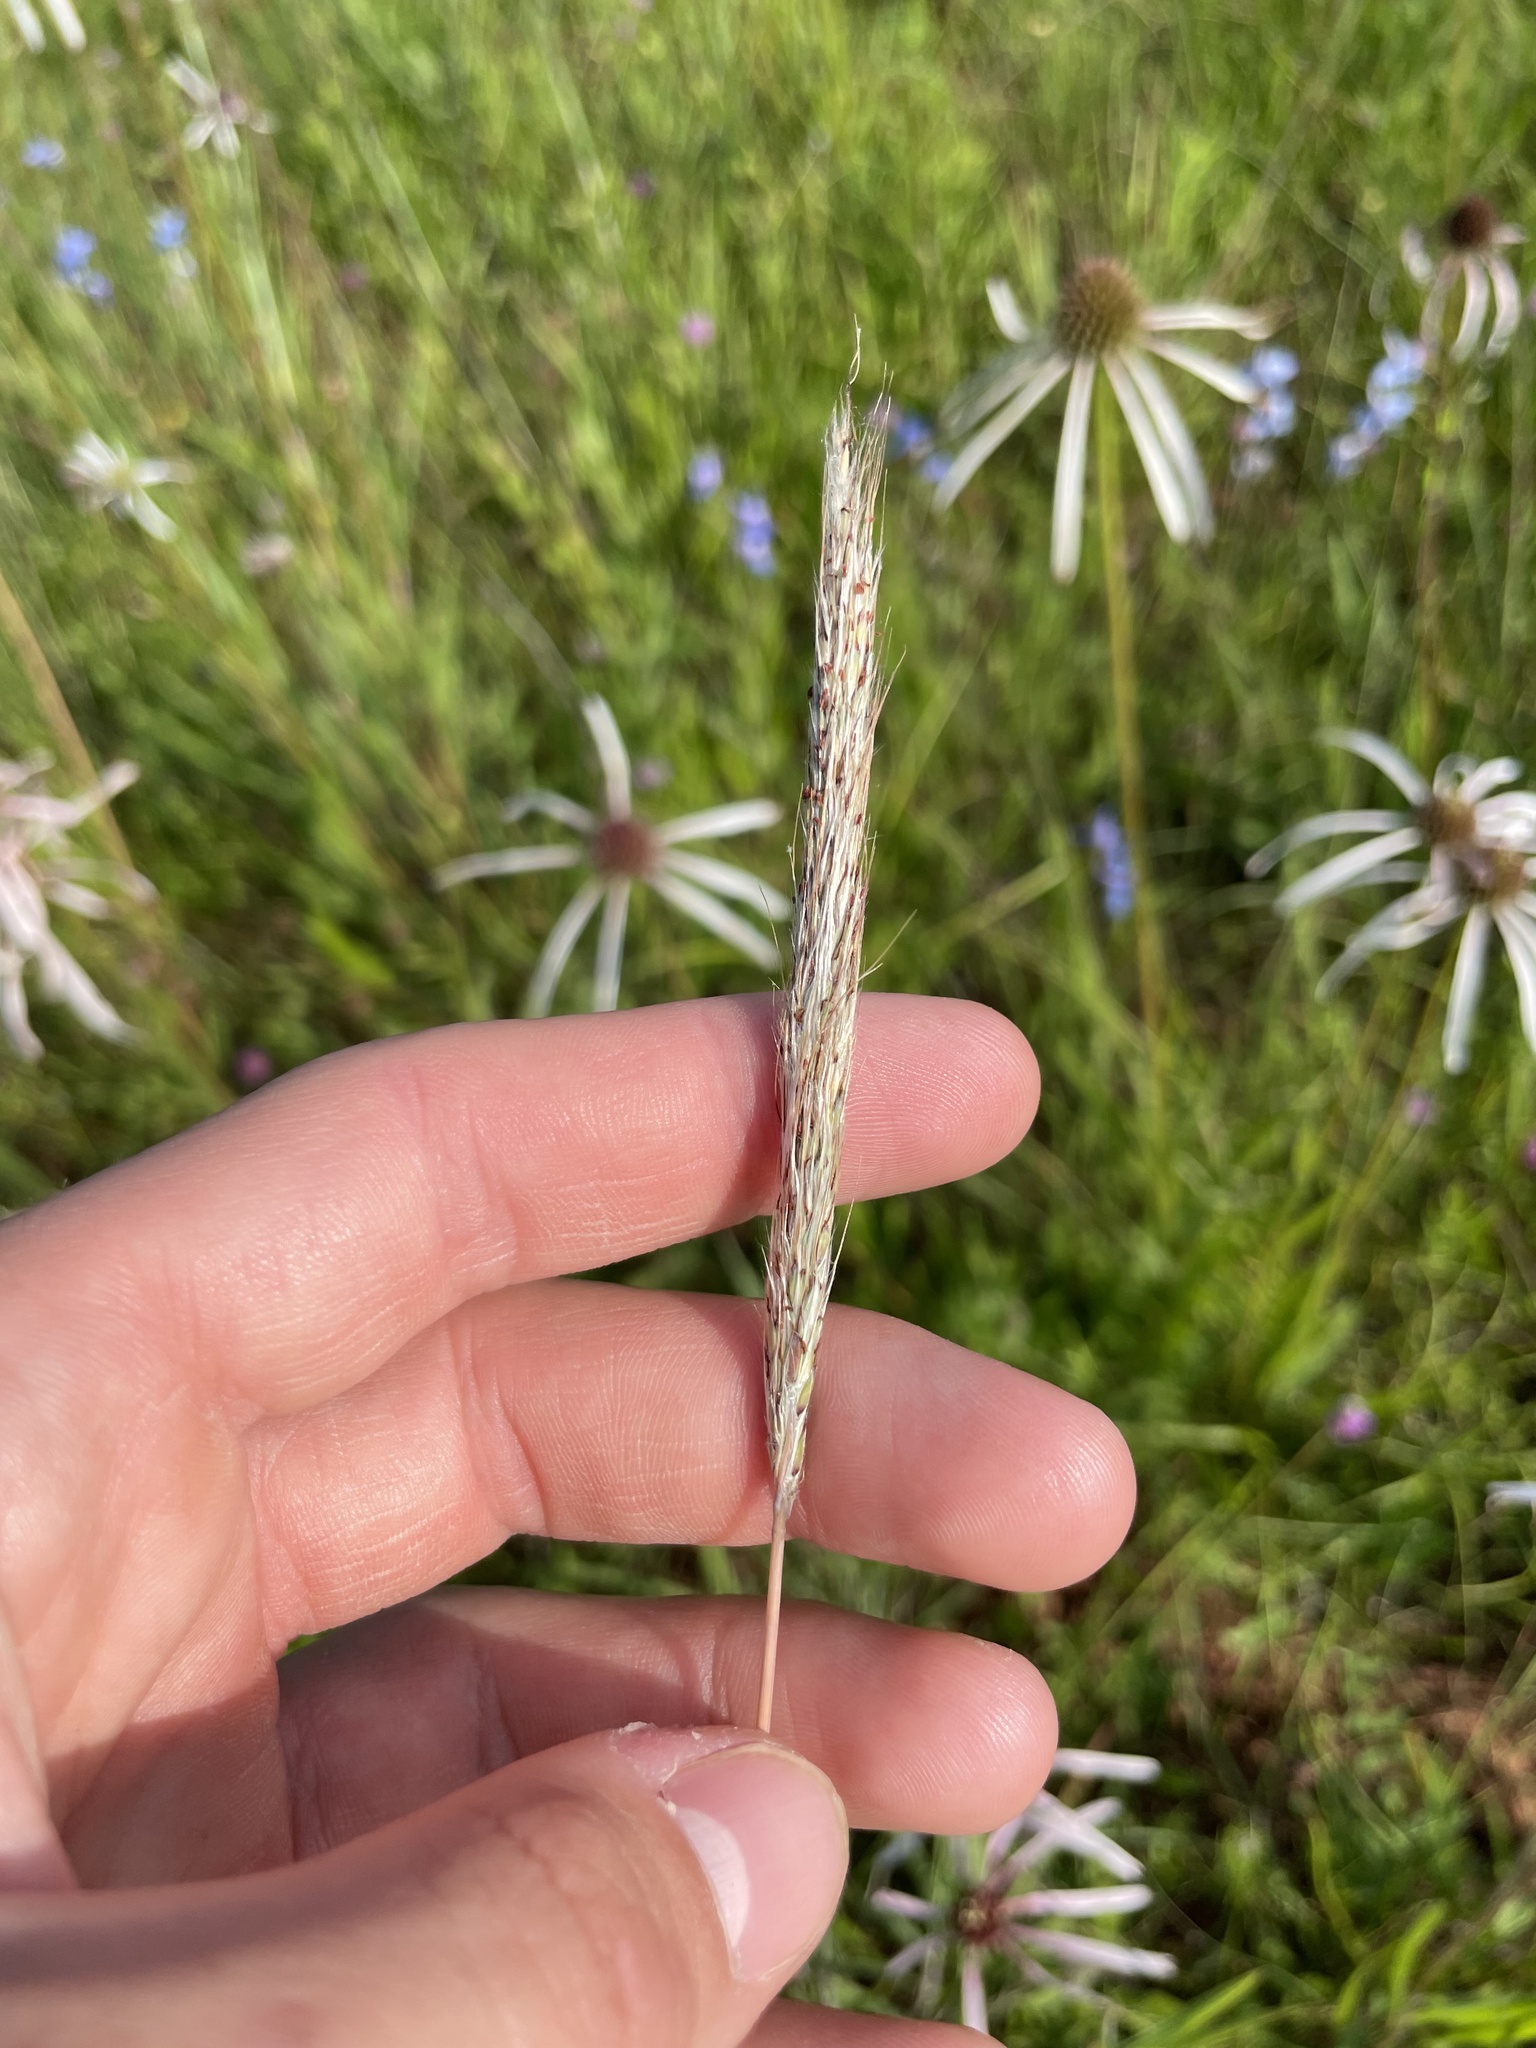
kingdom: Plantae
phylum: Tracheophyta
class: Liliopsida
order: Poales
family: Poaceae
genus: Bothriochloa
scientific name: Bothriochloa longipaniculata
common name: Longspike silver bluestem
